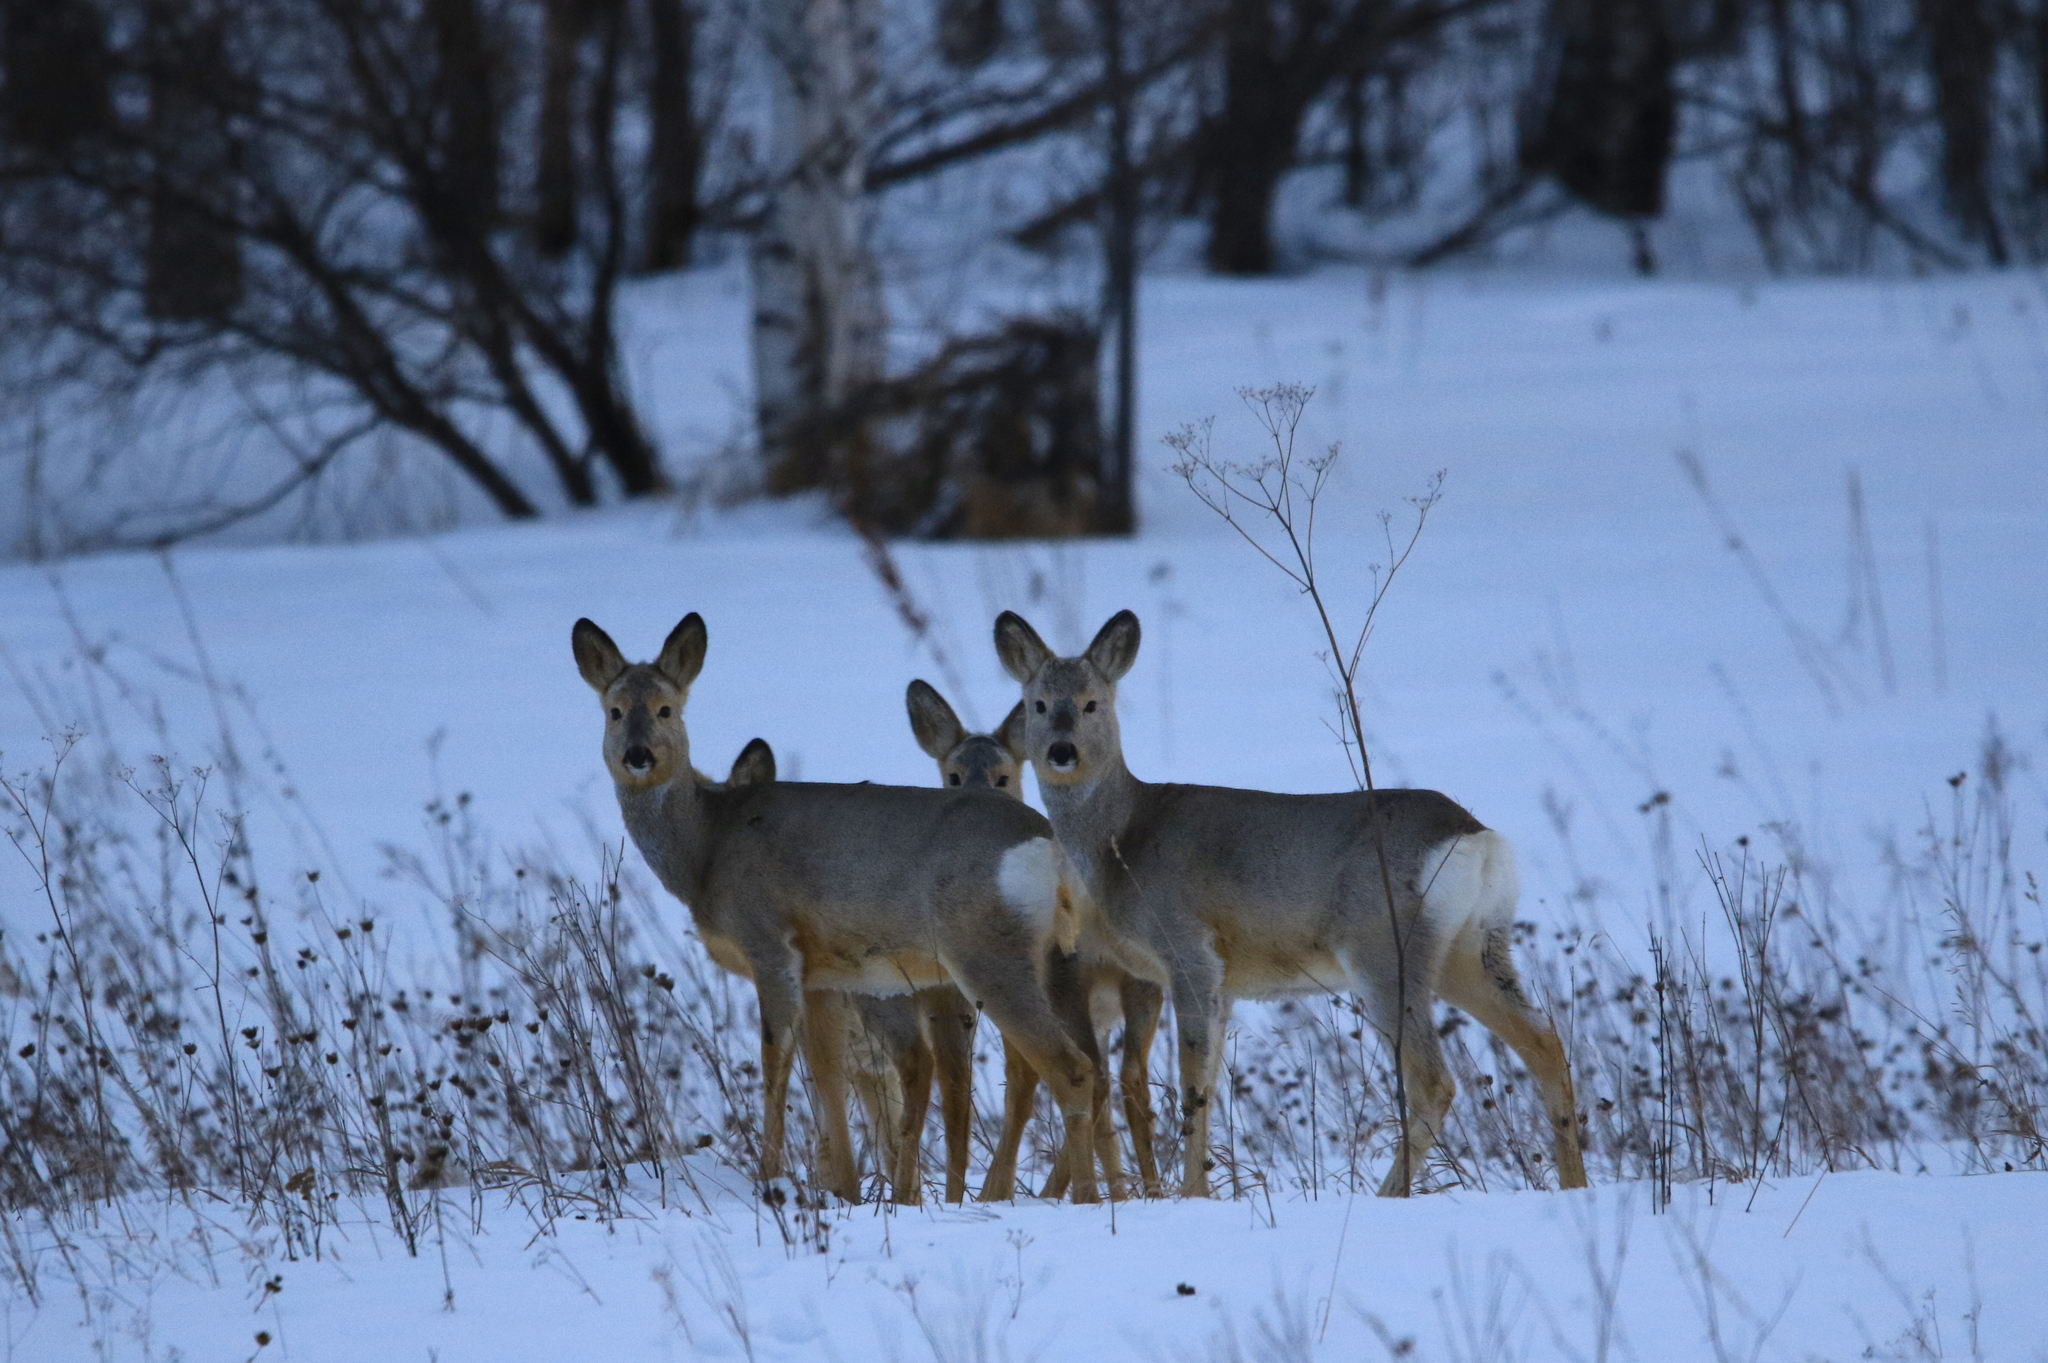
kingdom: Animalia
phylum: Chordata
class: Mammalia
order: Artiodactyla
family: Cervidae
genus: Capreolus
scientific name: Capreolus pygargus
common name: Siberian roe
